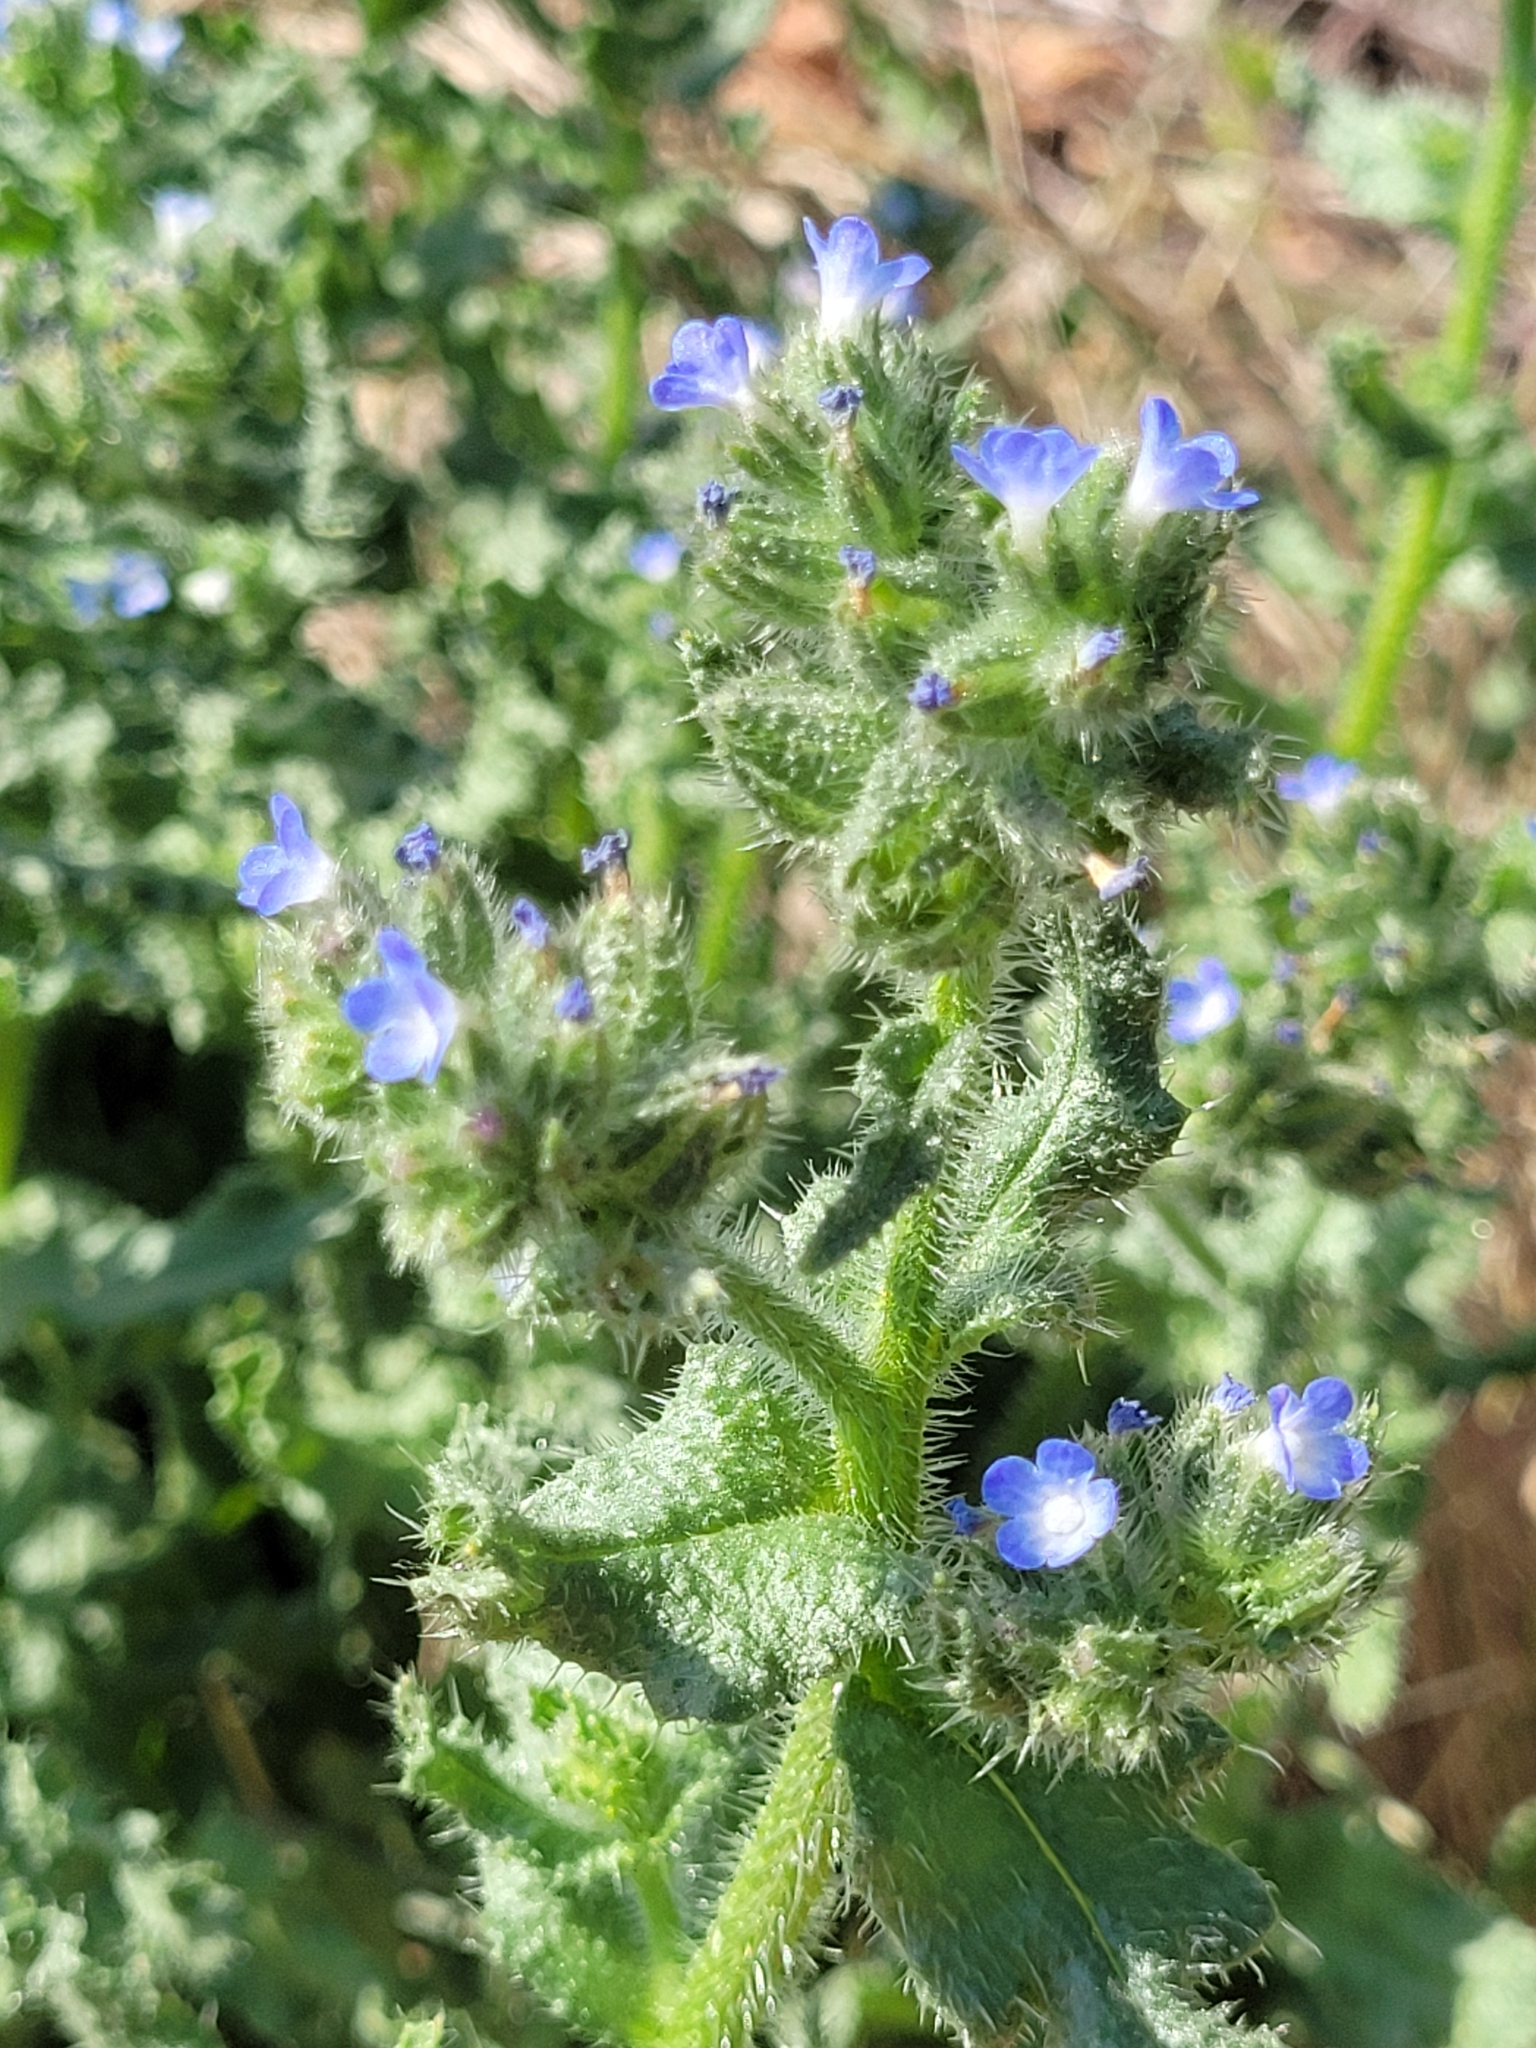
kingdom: Plantae
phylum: Tracheophyta
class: Magnoliopsida
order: Boraginales
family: Boraginaceae
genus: Lycopsis
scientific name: Lycopsis arvensis
